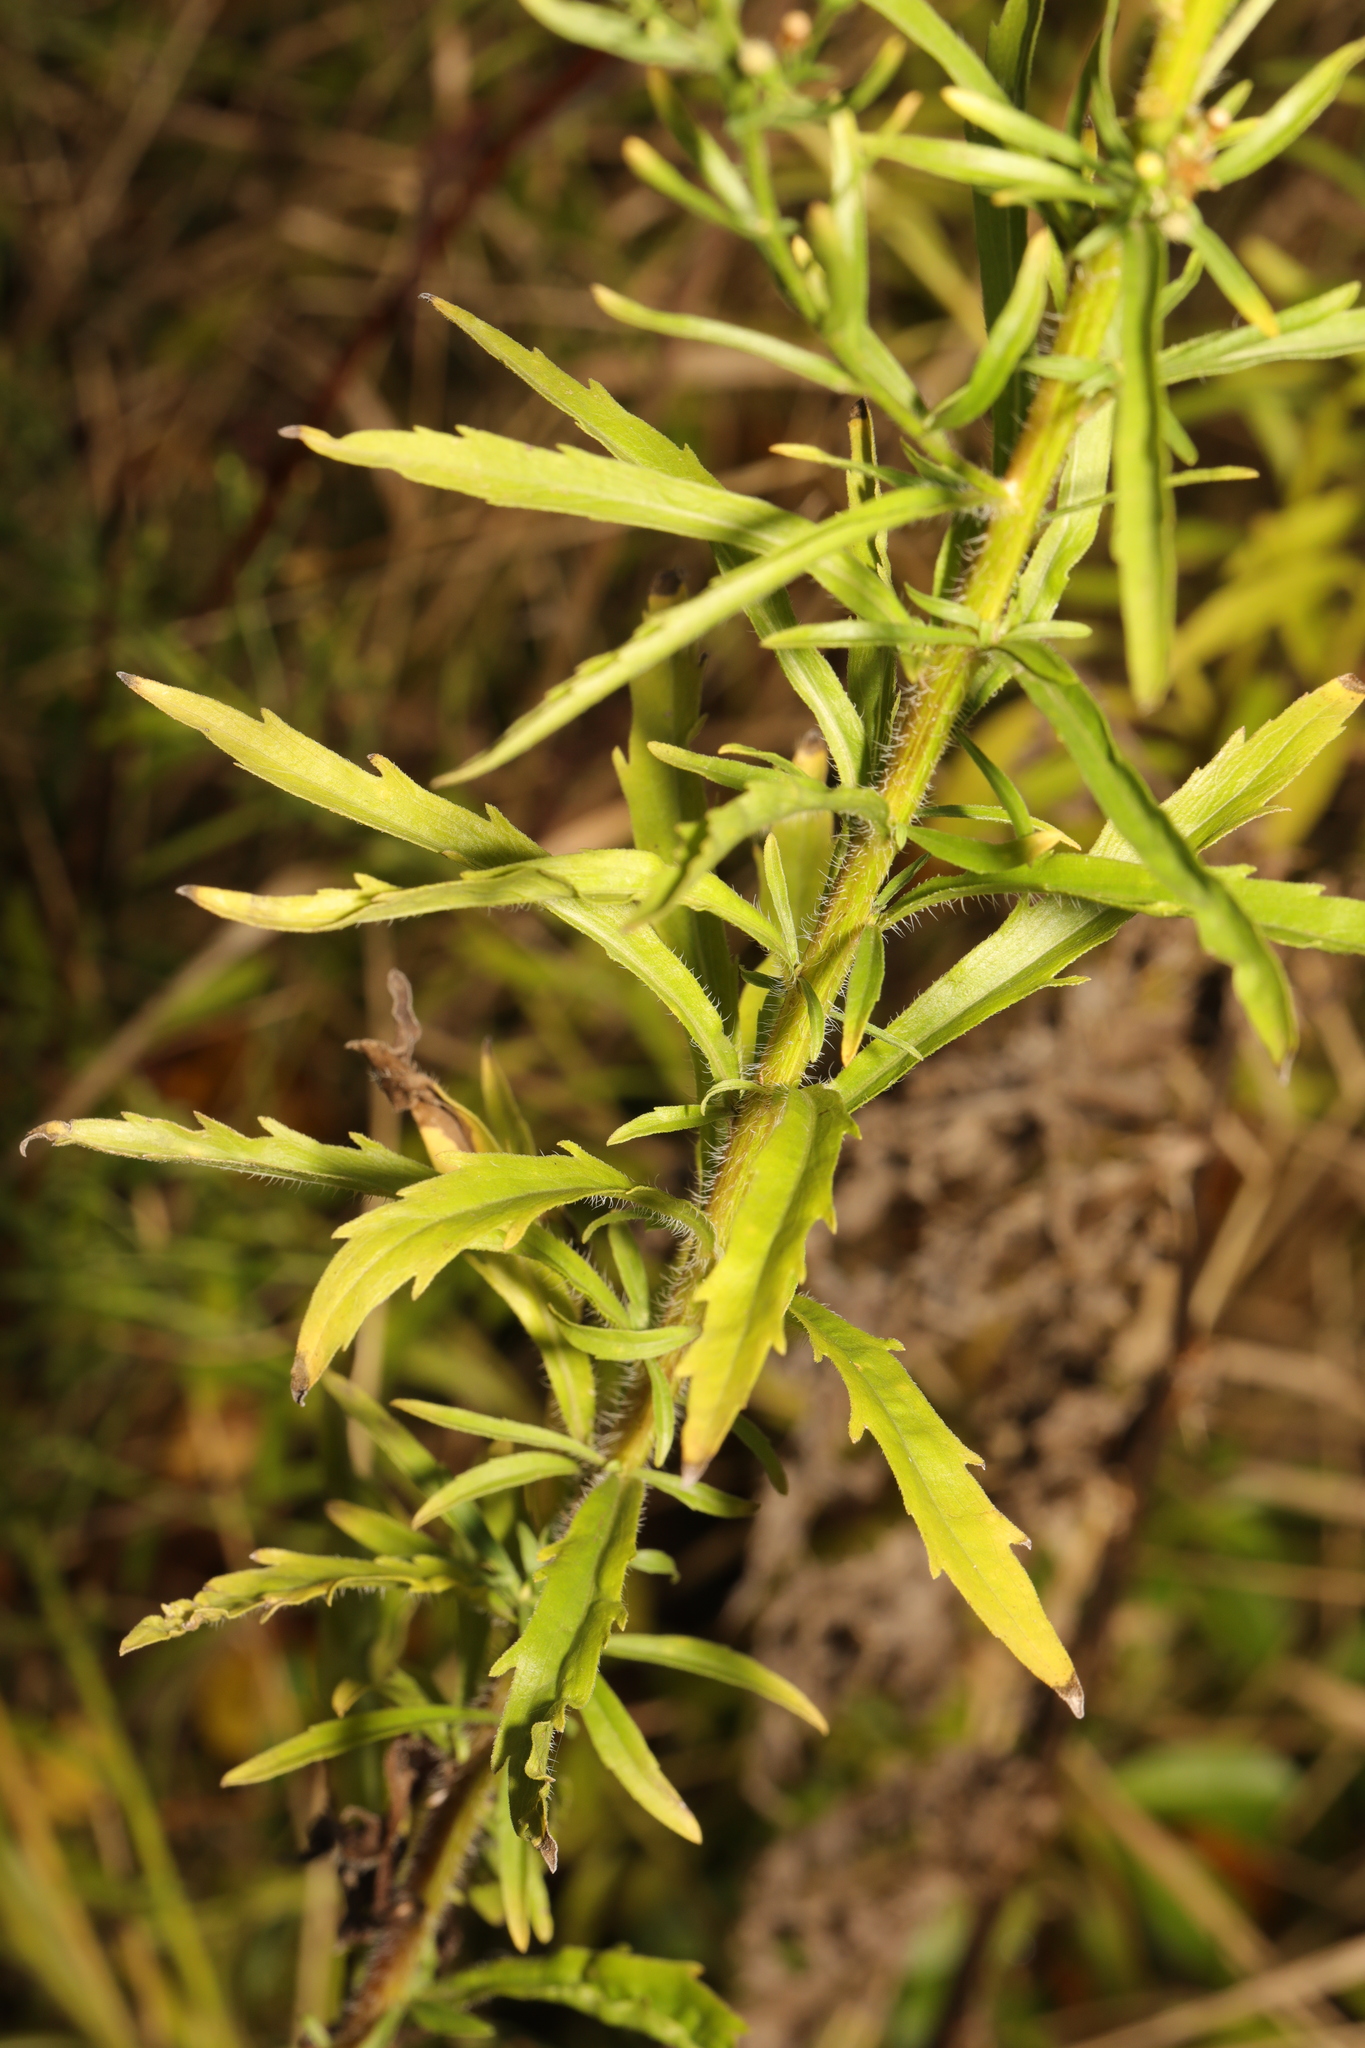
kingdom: Plantae
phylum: Tracheophyta
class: Magnoliopsida
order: Asterales
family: Asteraceae
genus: Erigeron
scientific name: Erigeron canadensis
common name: Canadian fleabane
